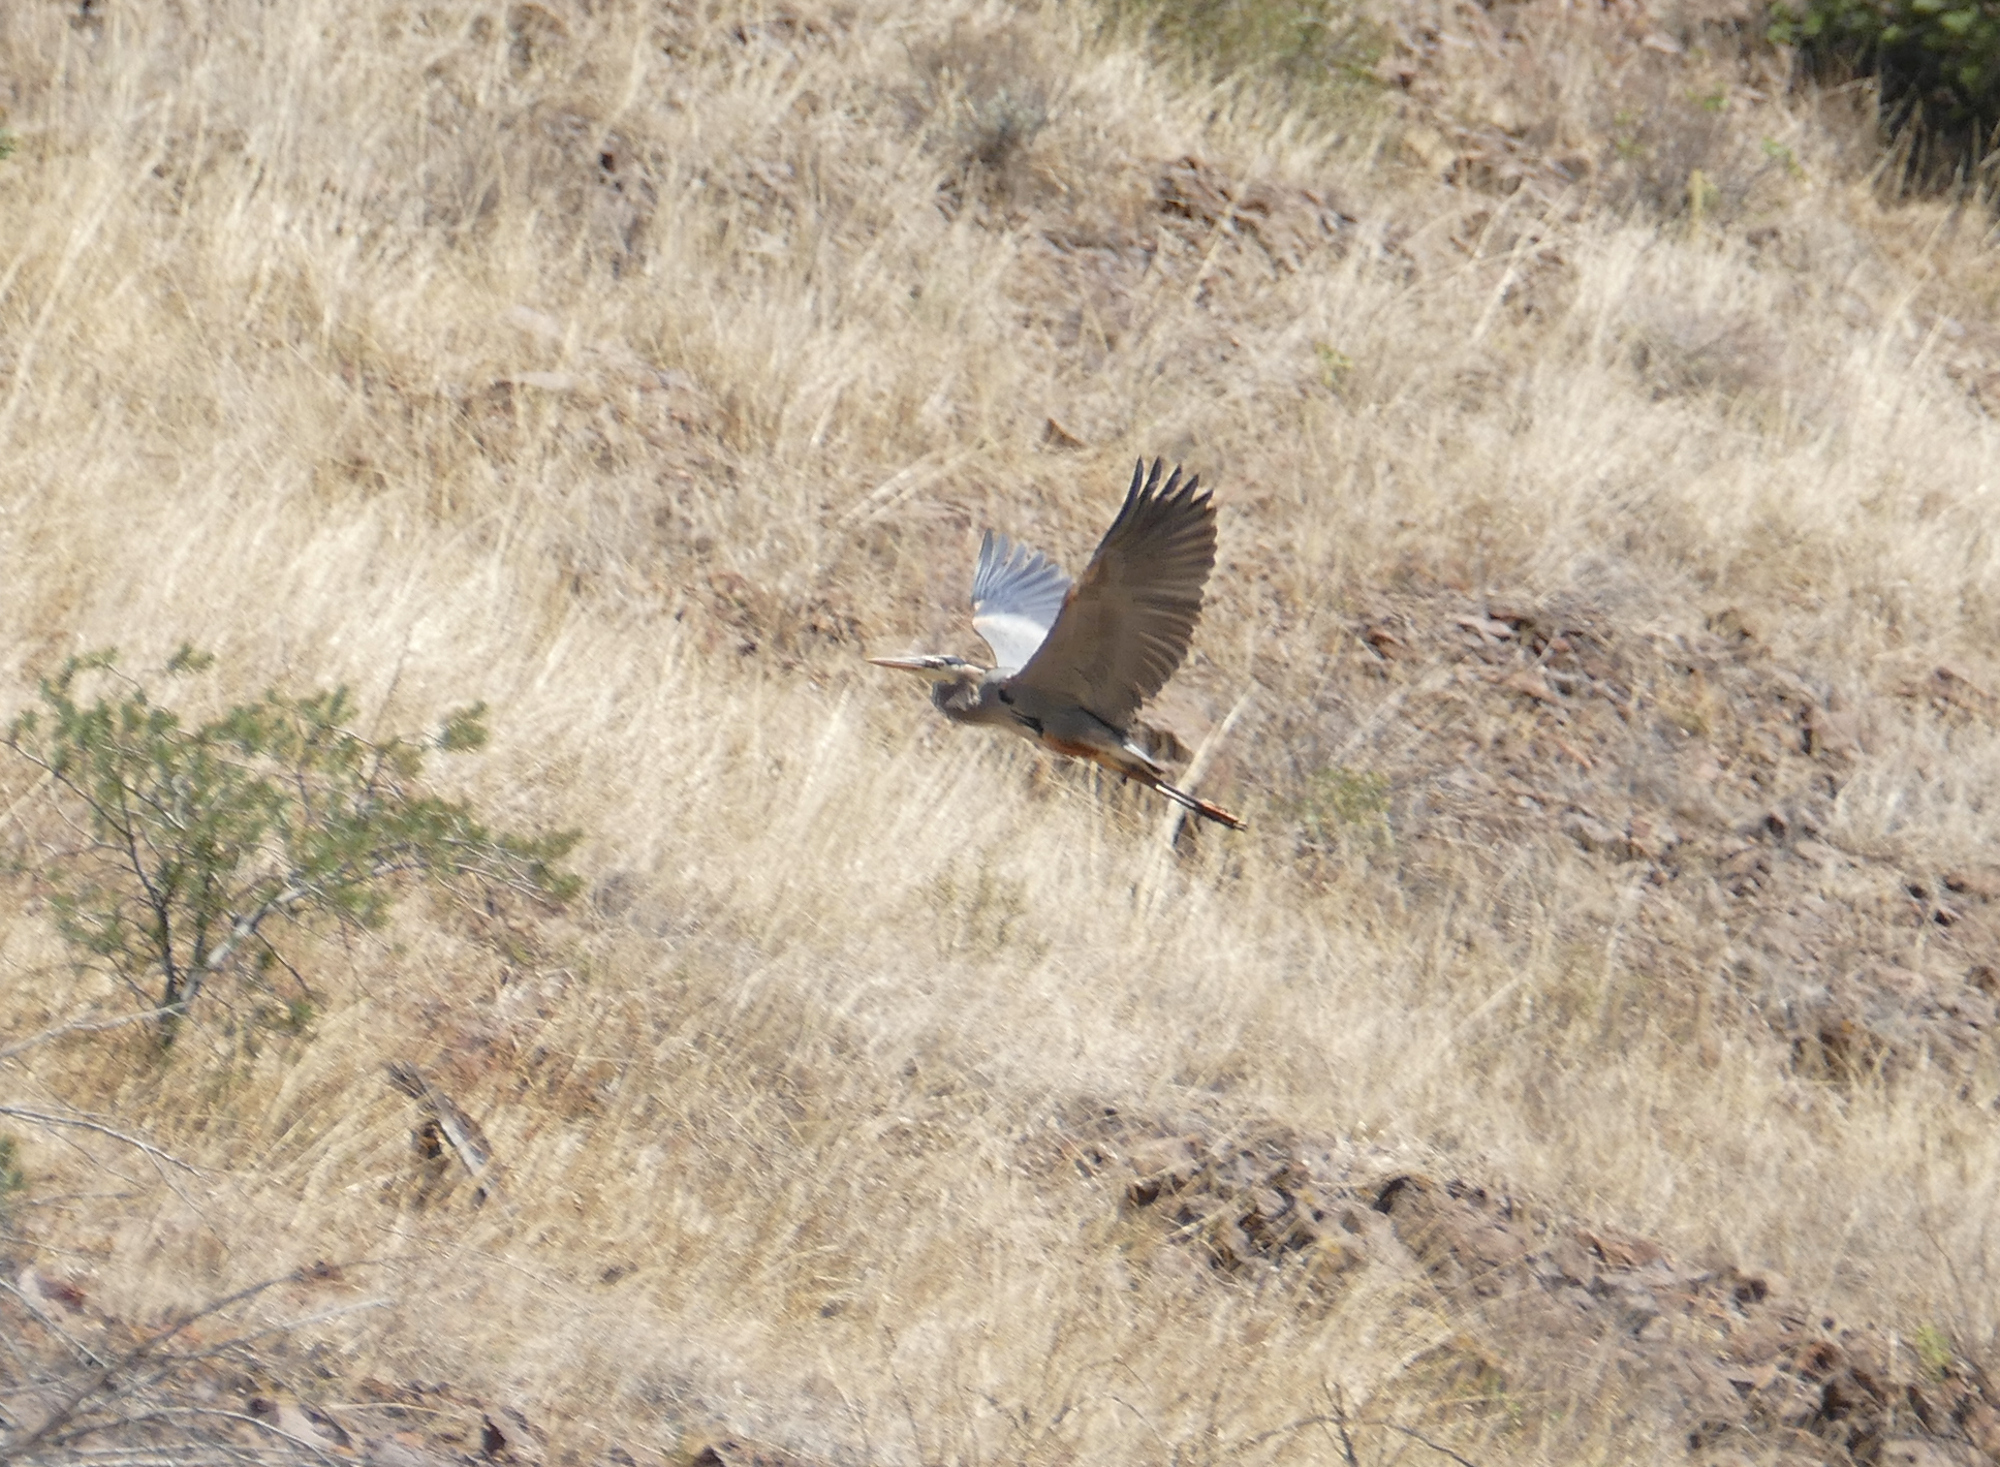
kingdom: Animalia
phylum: Chordata
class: Aves
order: Pelecaniformes
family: Ardeidae
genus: Ardea
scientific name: Ardea herodias
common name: Great blue heron
